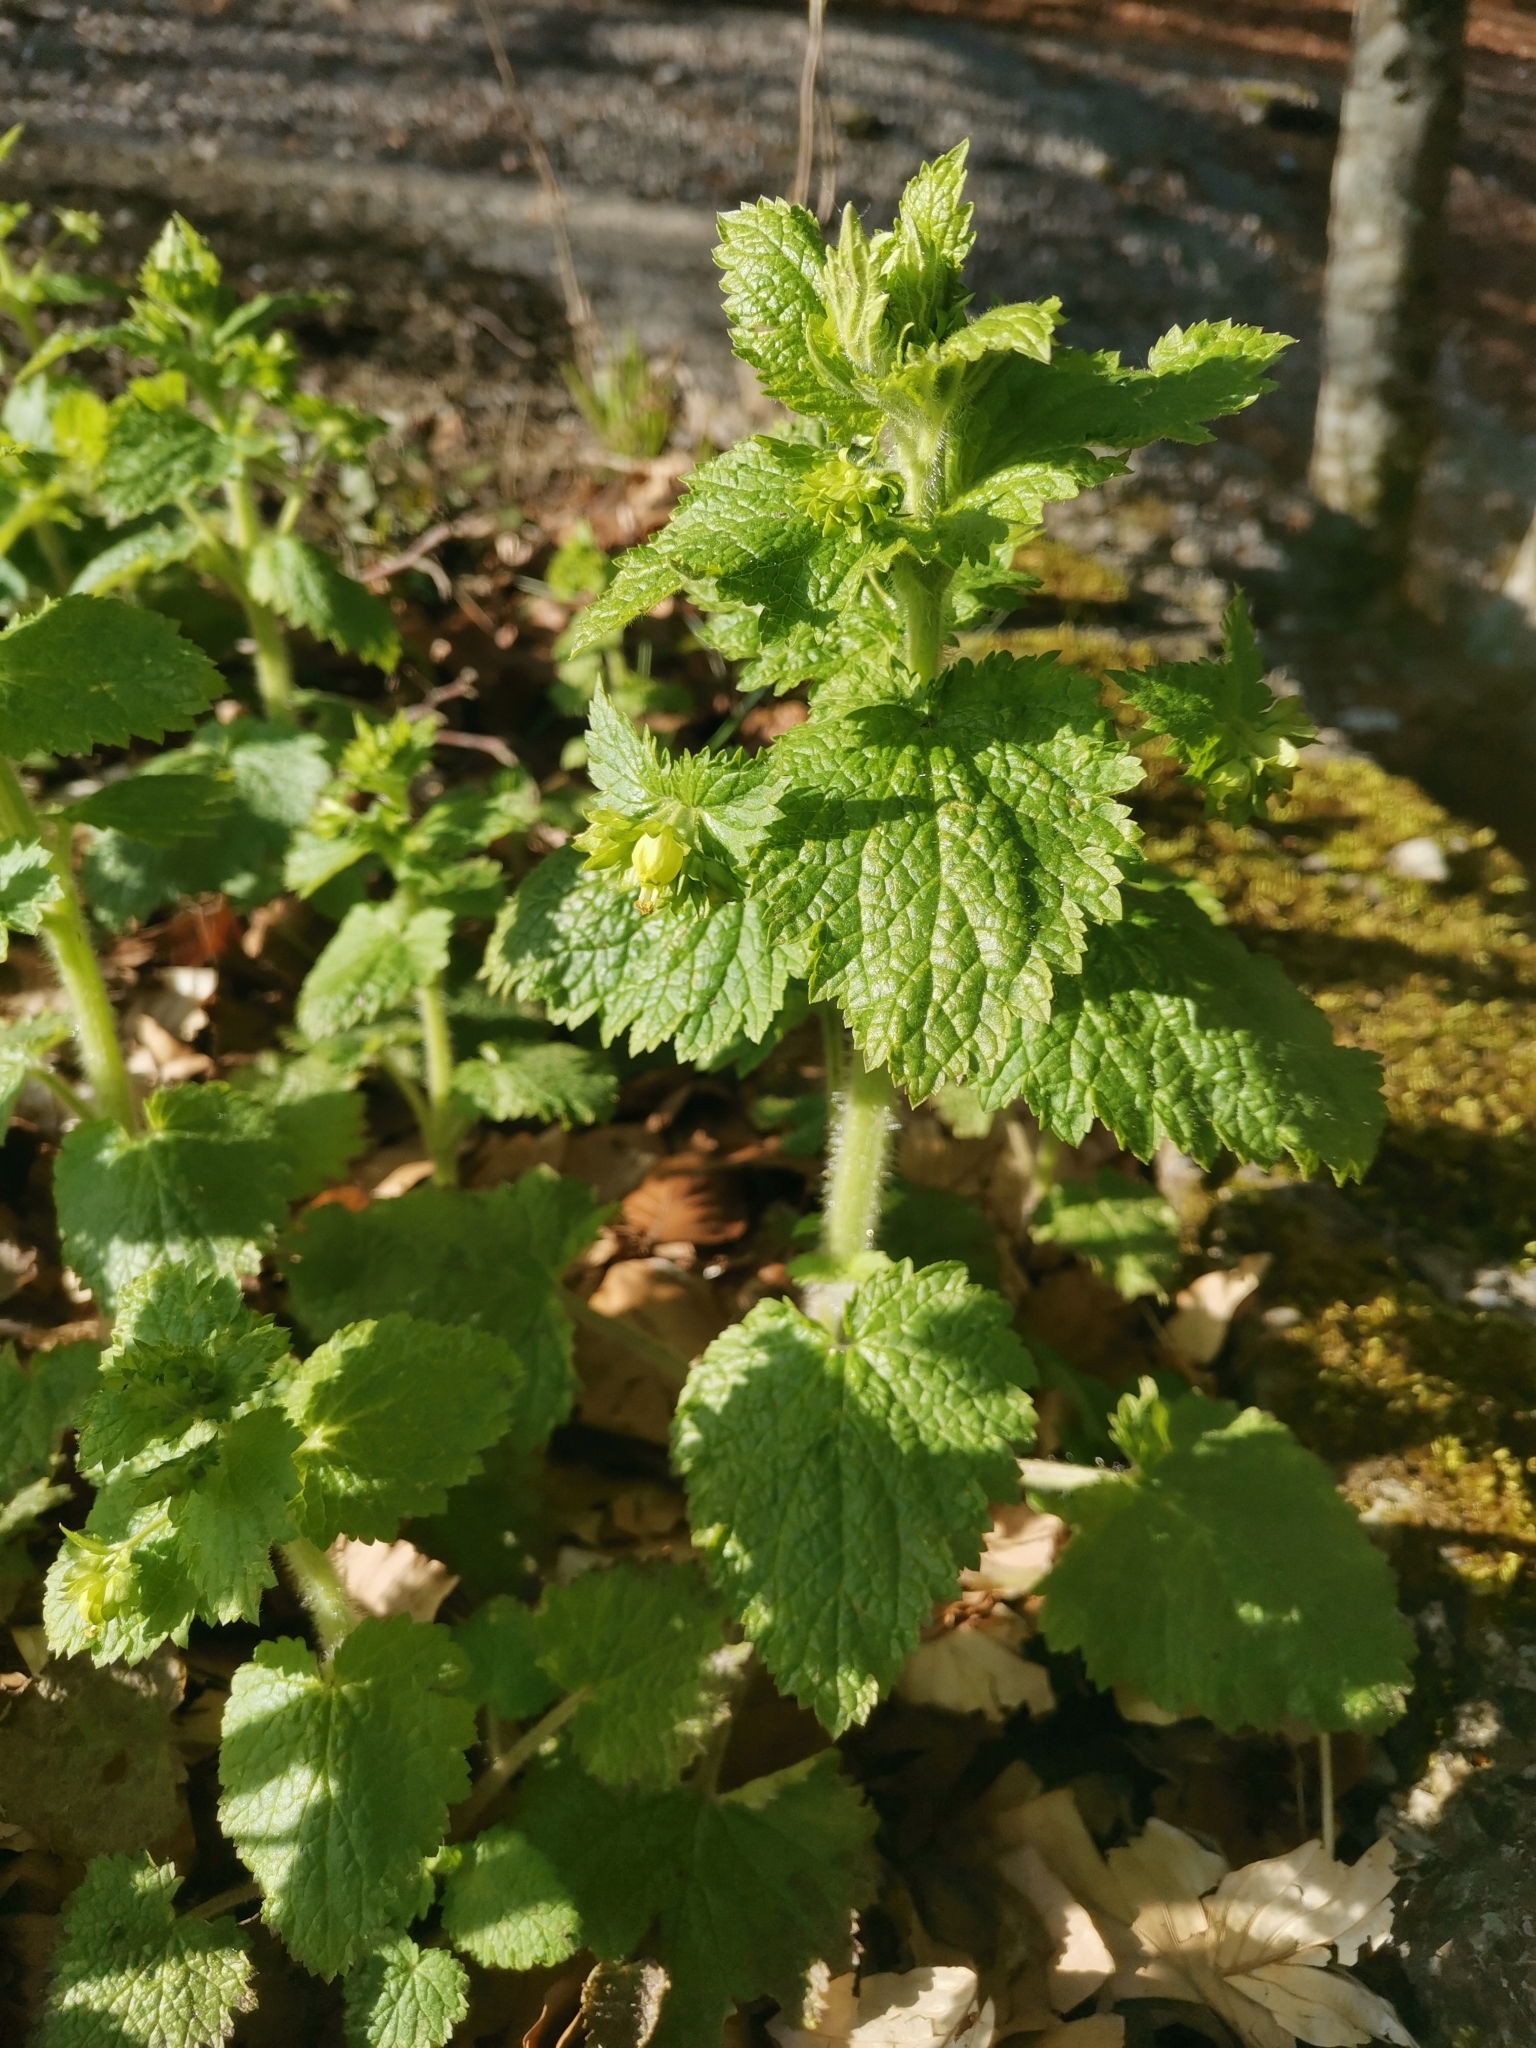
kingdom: Plantae
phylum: Tracheophyta
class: Magnoliopsida
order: Lamiales
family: Scrophulariaceae
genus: Scrophularia
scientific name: Scrophularia vernalis
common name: Yellow figwort
